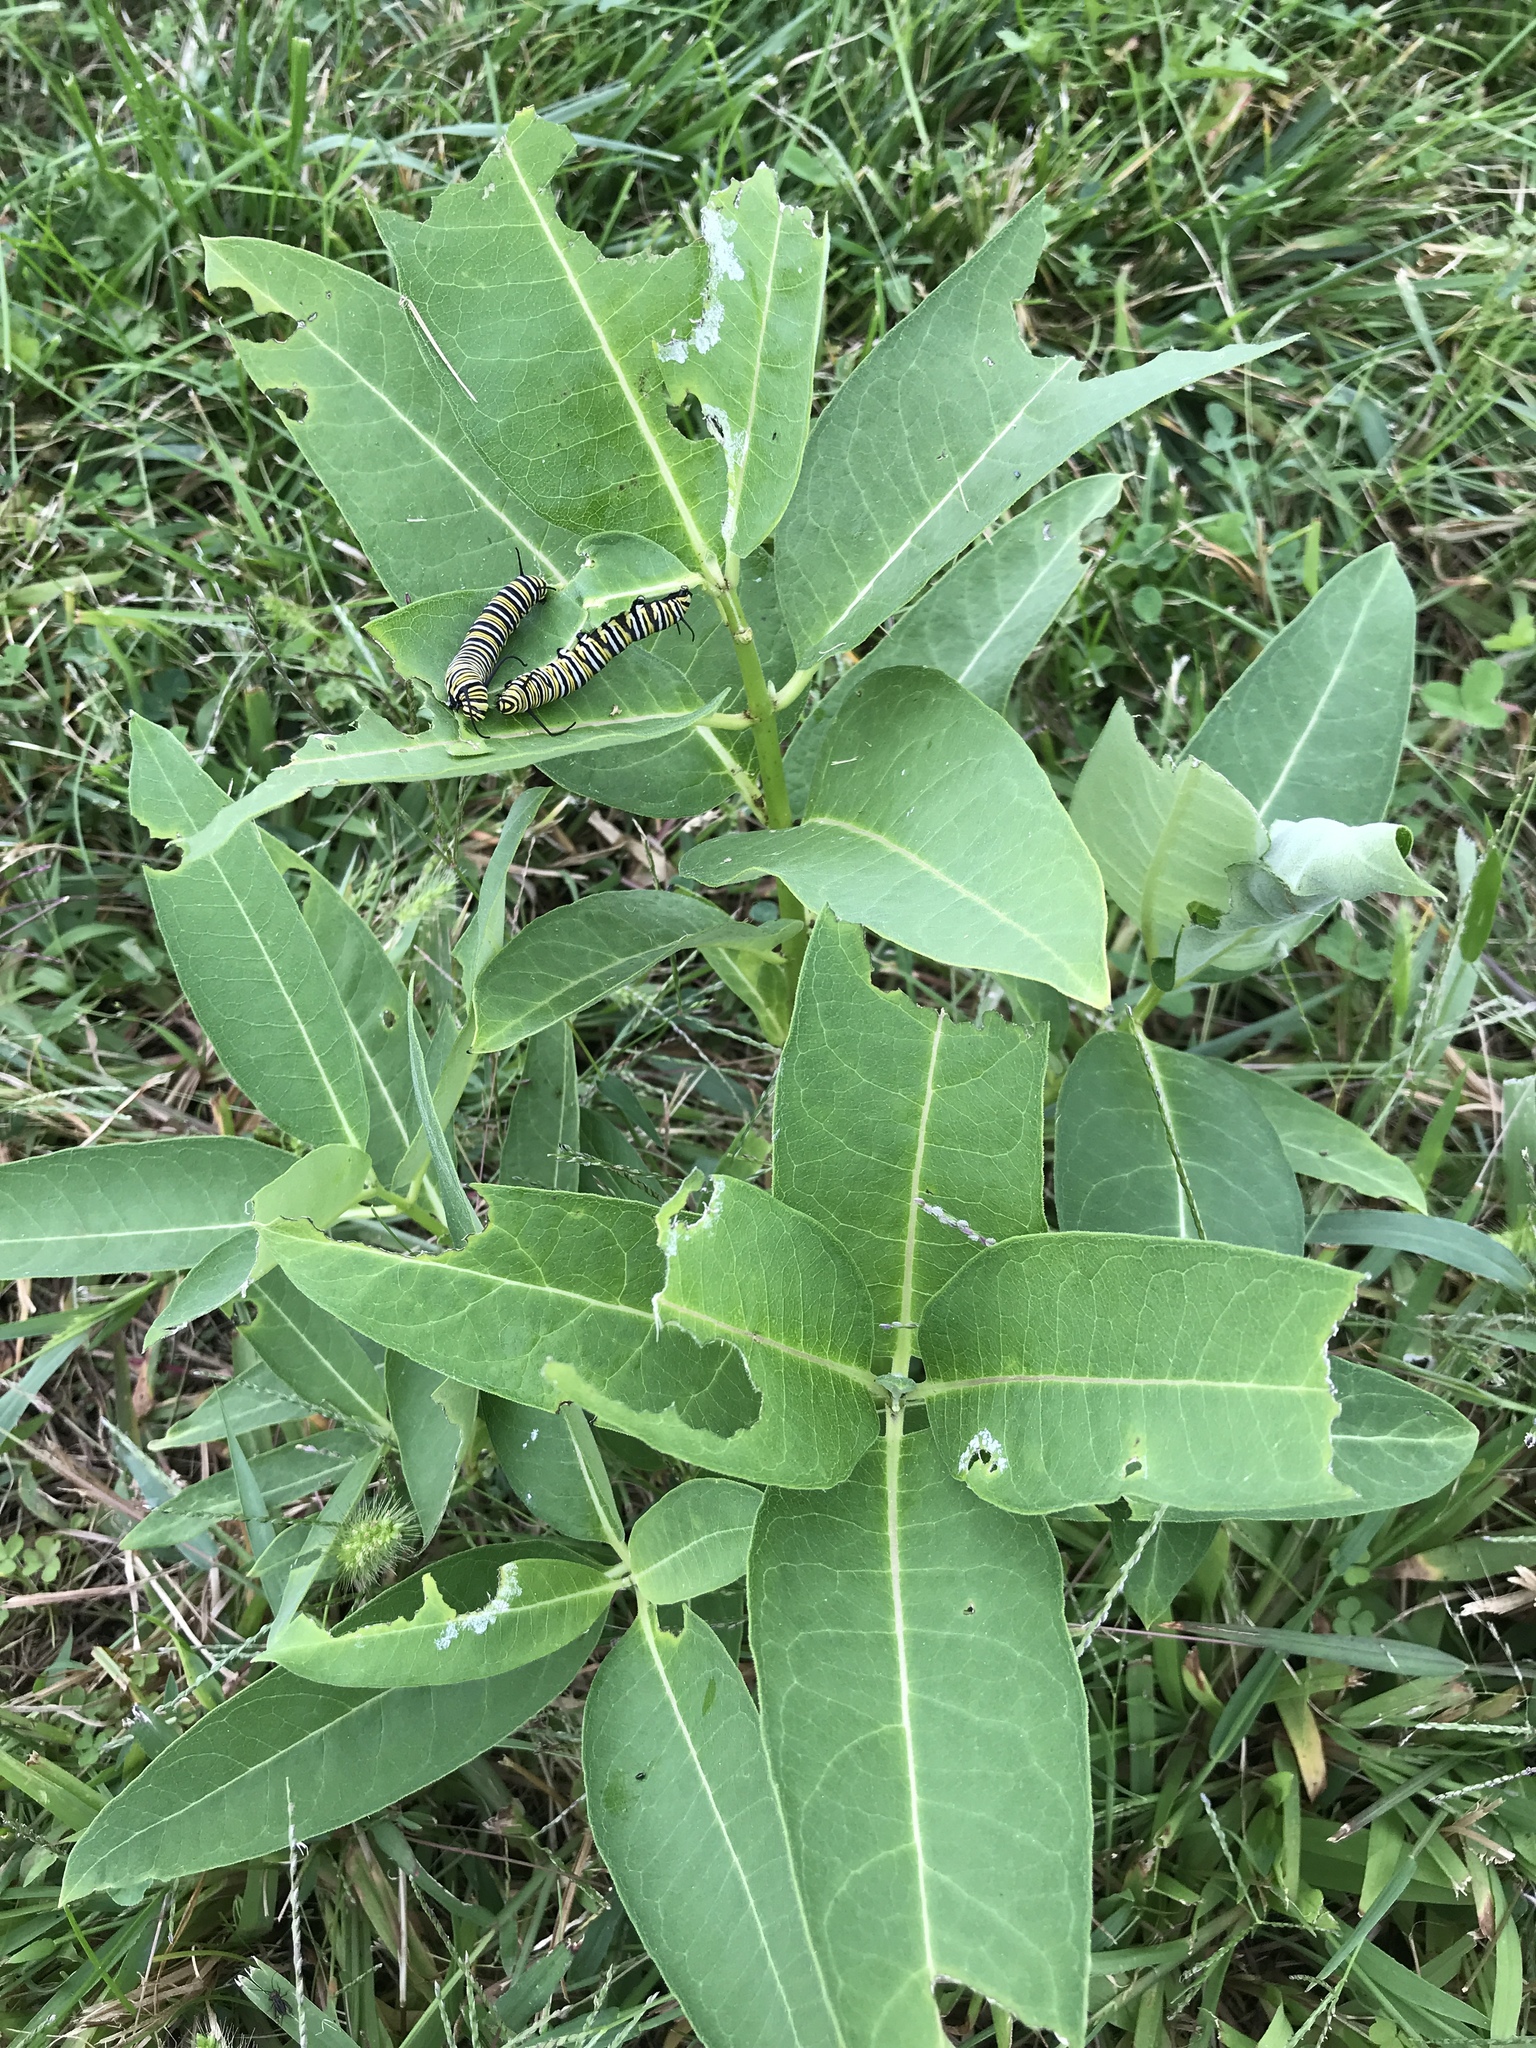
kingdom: Animalia
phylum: Arthropoda
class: Insecta
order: Lepidoptera
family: Nymphalidae
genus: Danaus
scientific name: Danaus plexippus
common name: Monarch
